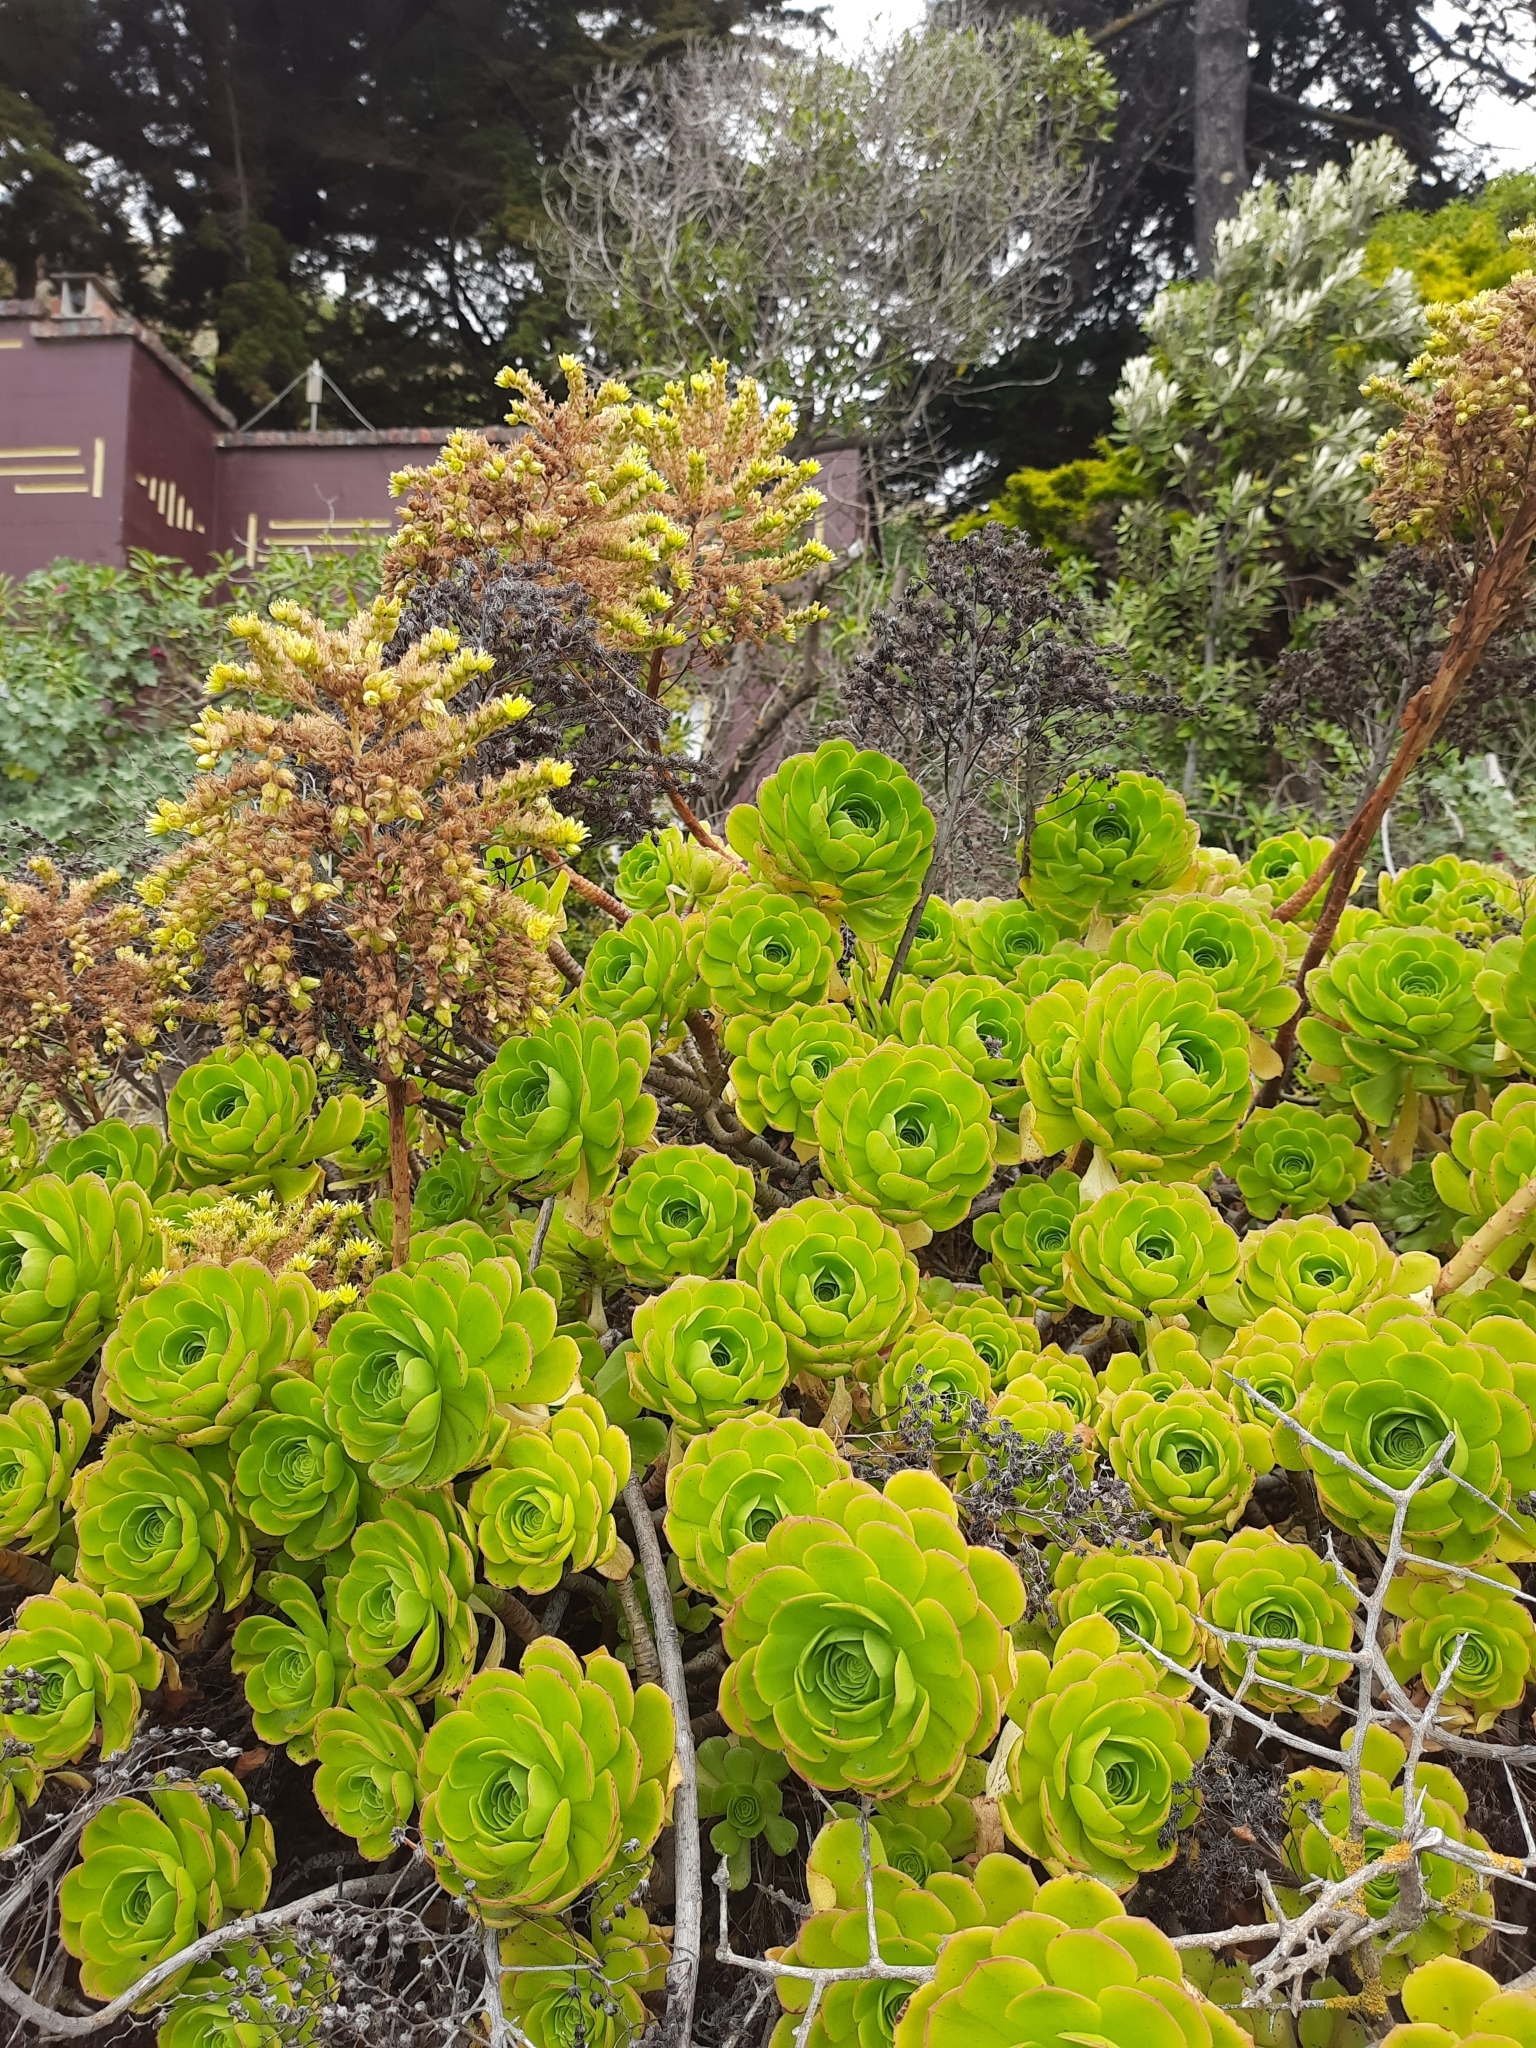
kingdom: Plantae
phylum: Tracheophyta
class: Magnoliopsida
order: Saxifragales
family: Crassulaceae
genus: Aeonium
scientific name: Aeonium arboreum
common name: Tree aeonium
